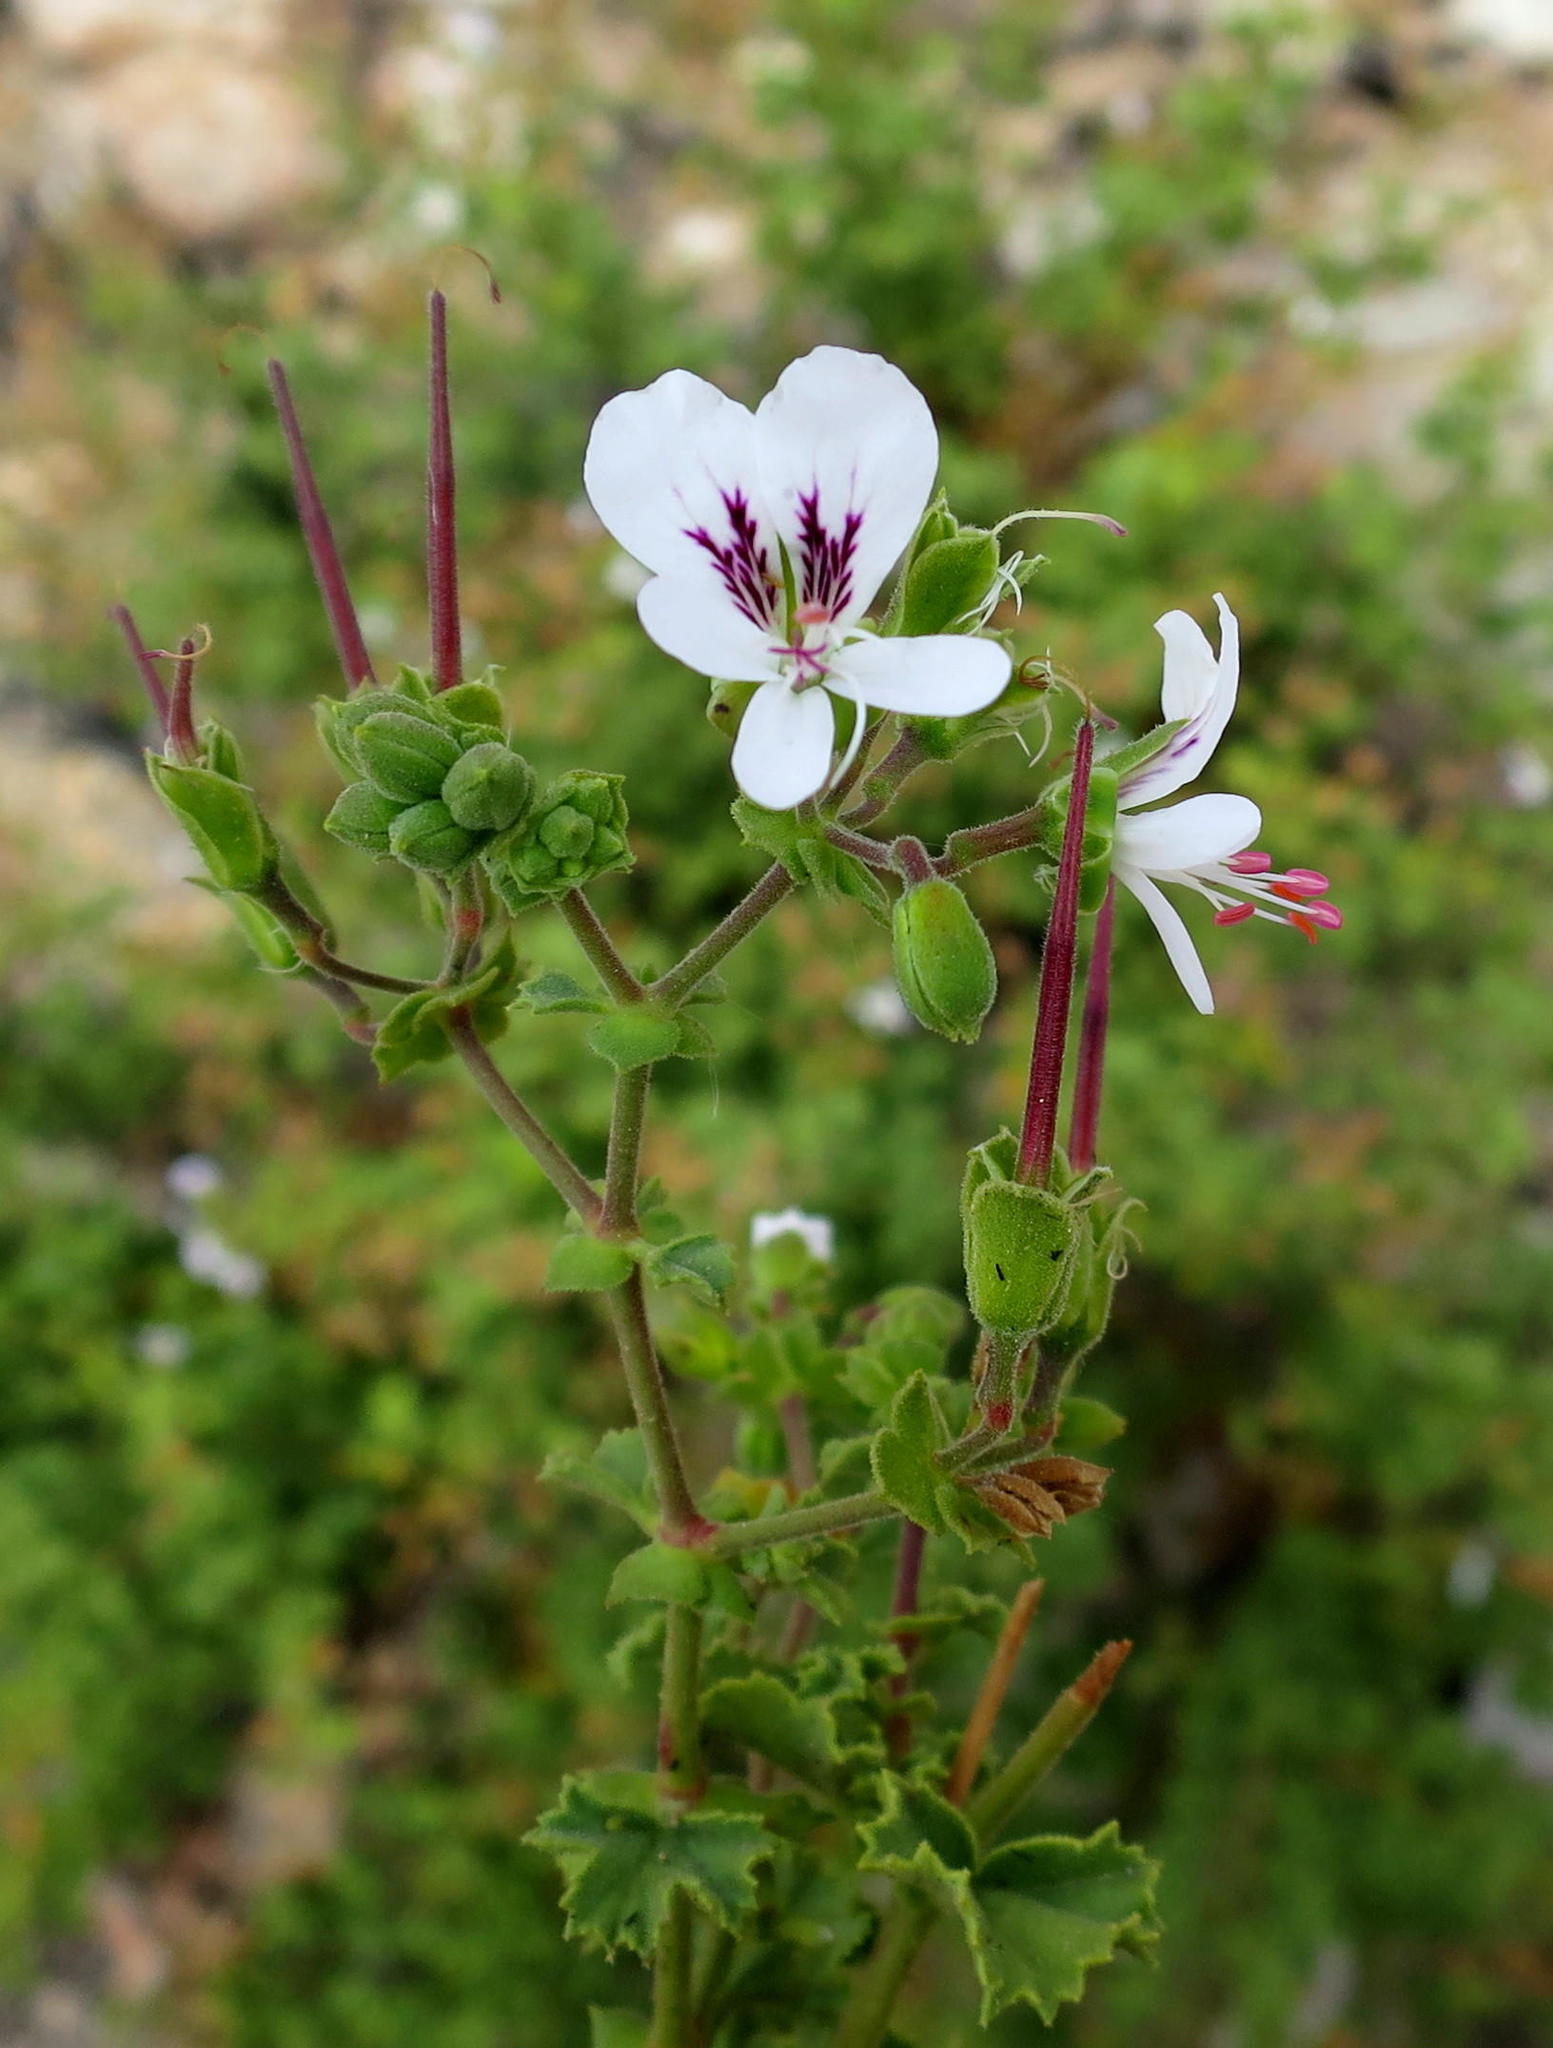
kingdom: Plantae
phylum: Tracheophyta
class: Magnoliopsida
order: Geraniales
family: Geraniaceae
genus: Pelargonium
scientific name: Pelargonium englerianum
